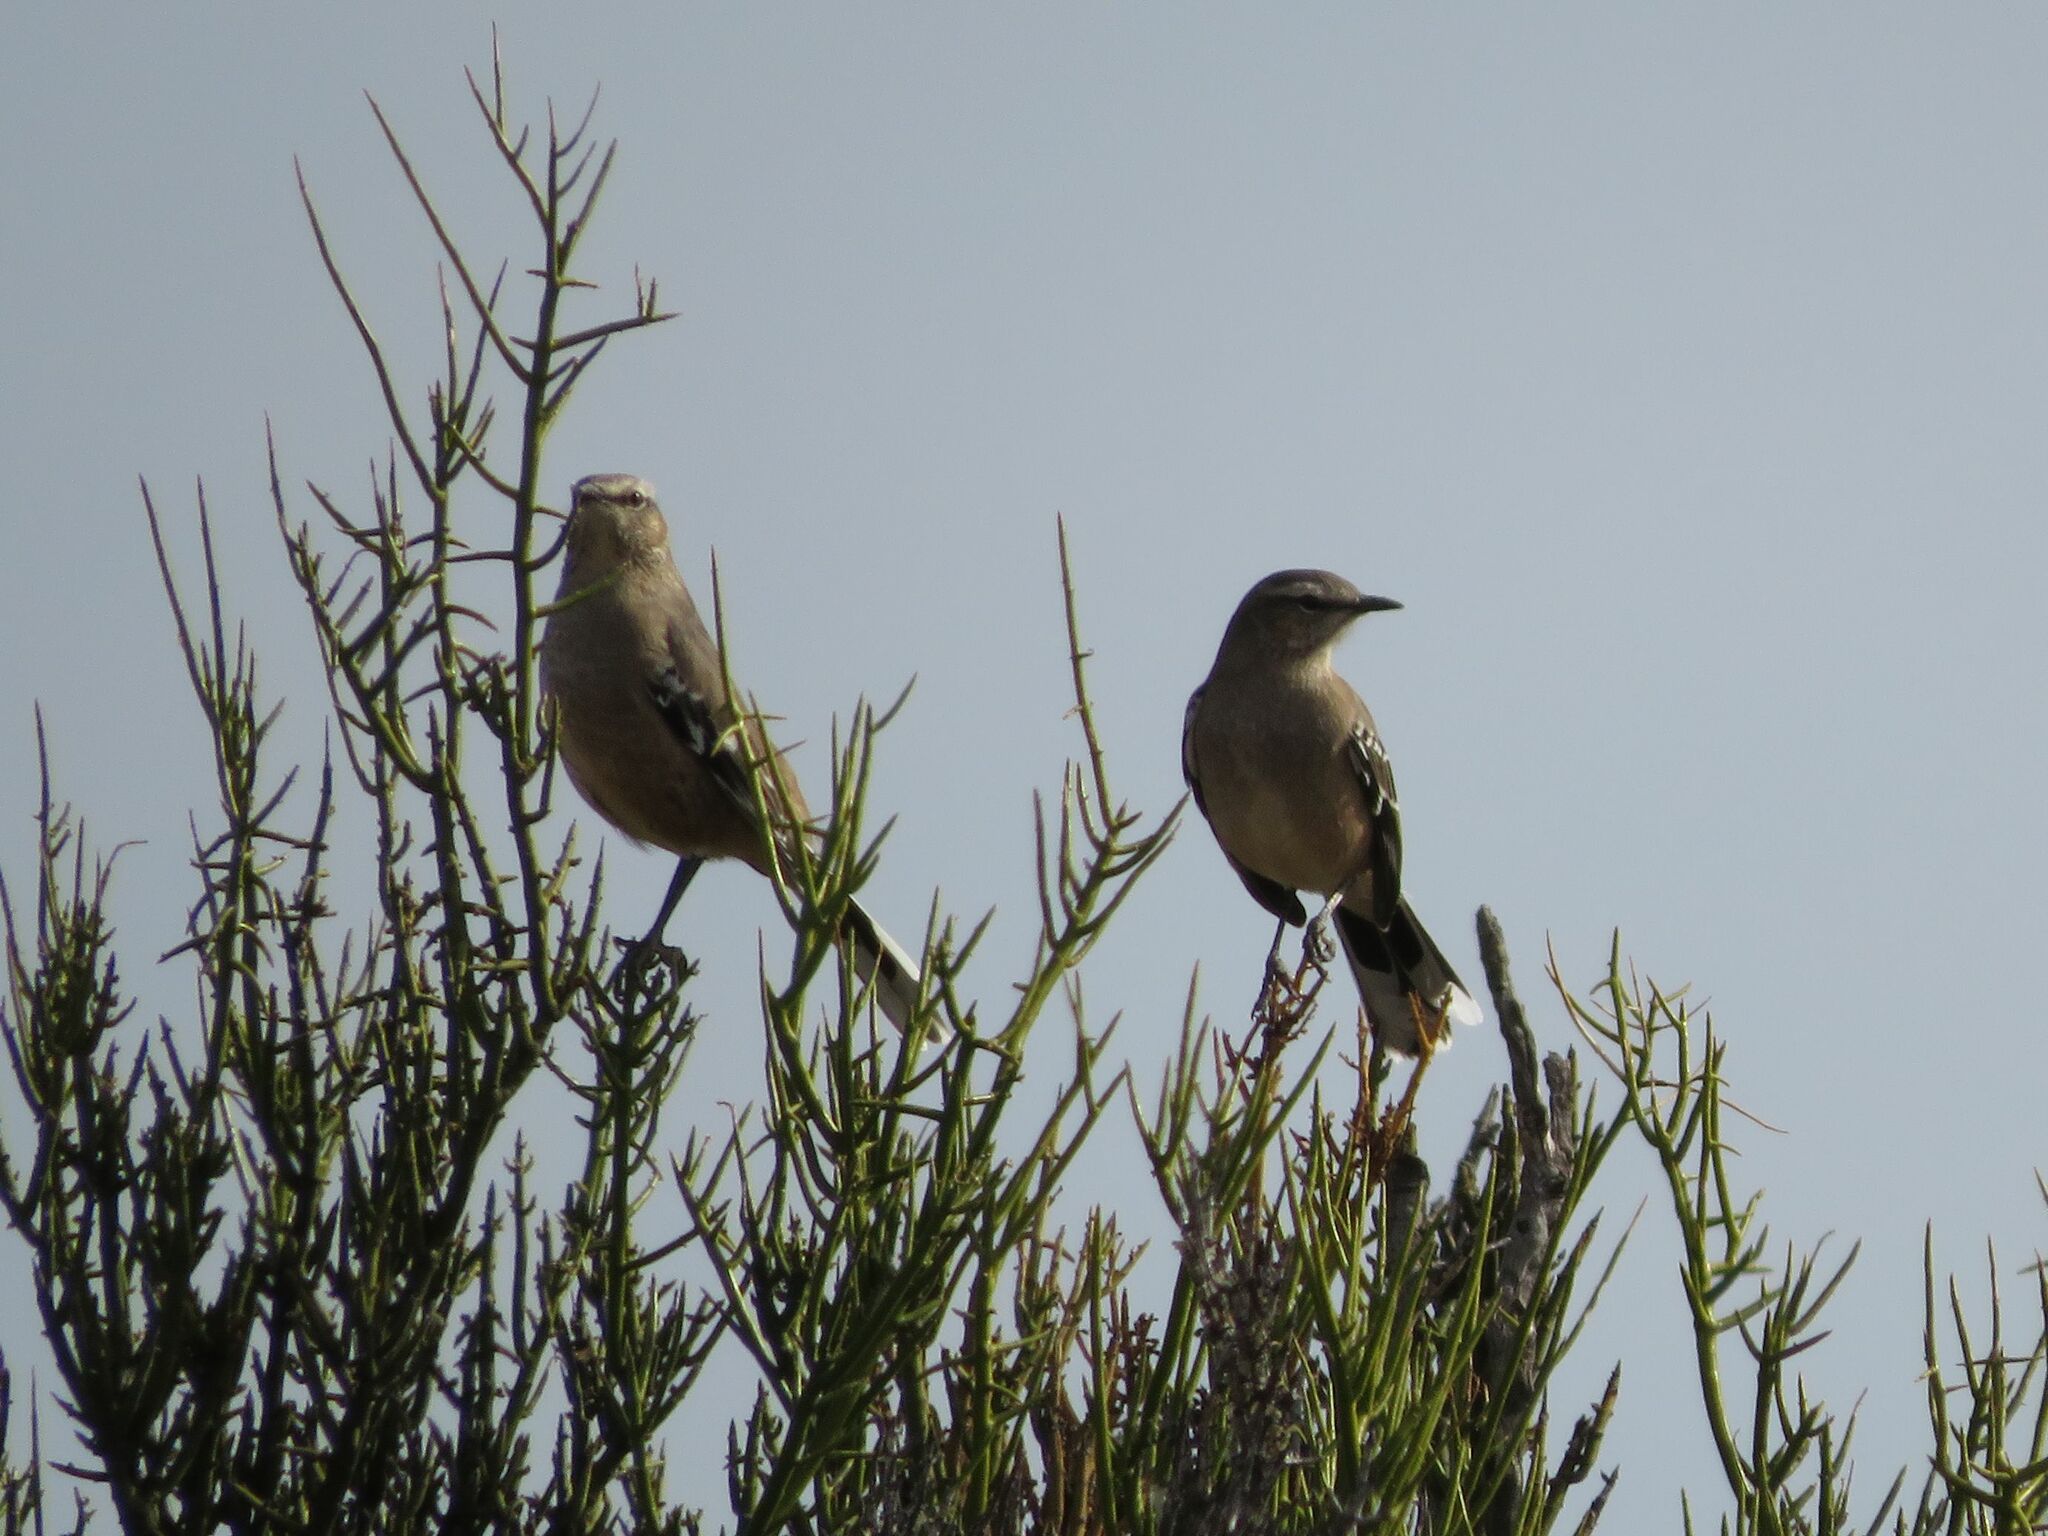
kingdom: Animalia
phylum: Chordata
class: Aves
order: Passeriformes
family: Mimidae
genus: Mimus
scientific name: Mimus patagonicus
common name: Patagonian mockingbird
